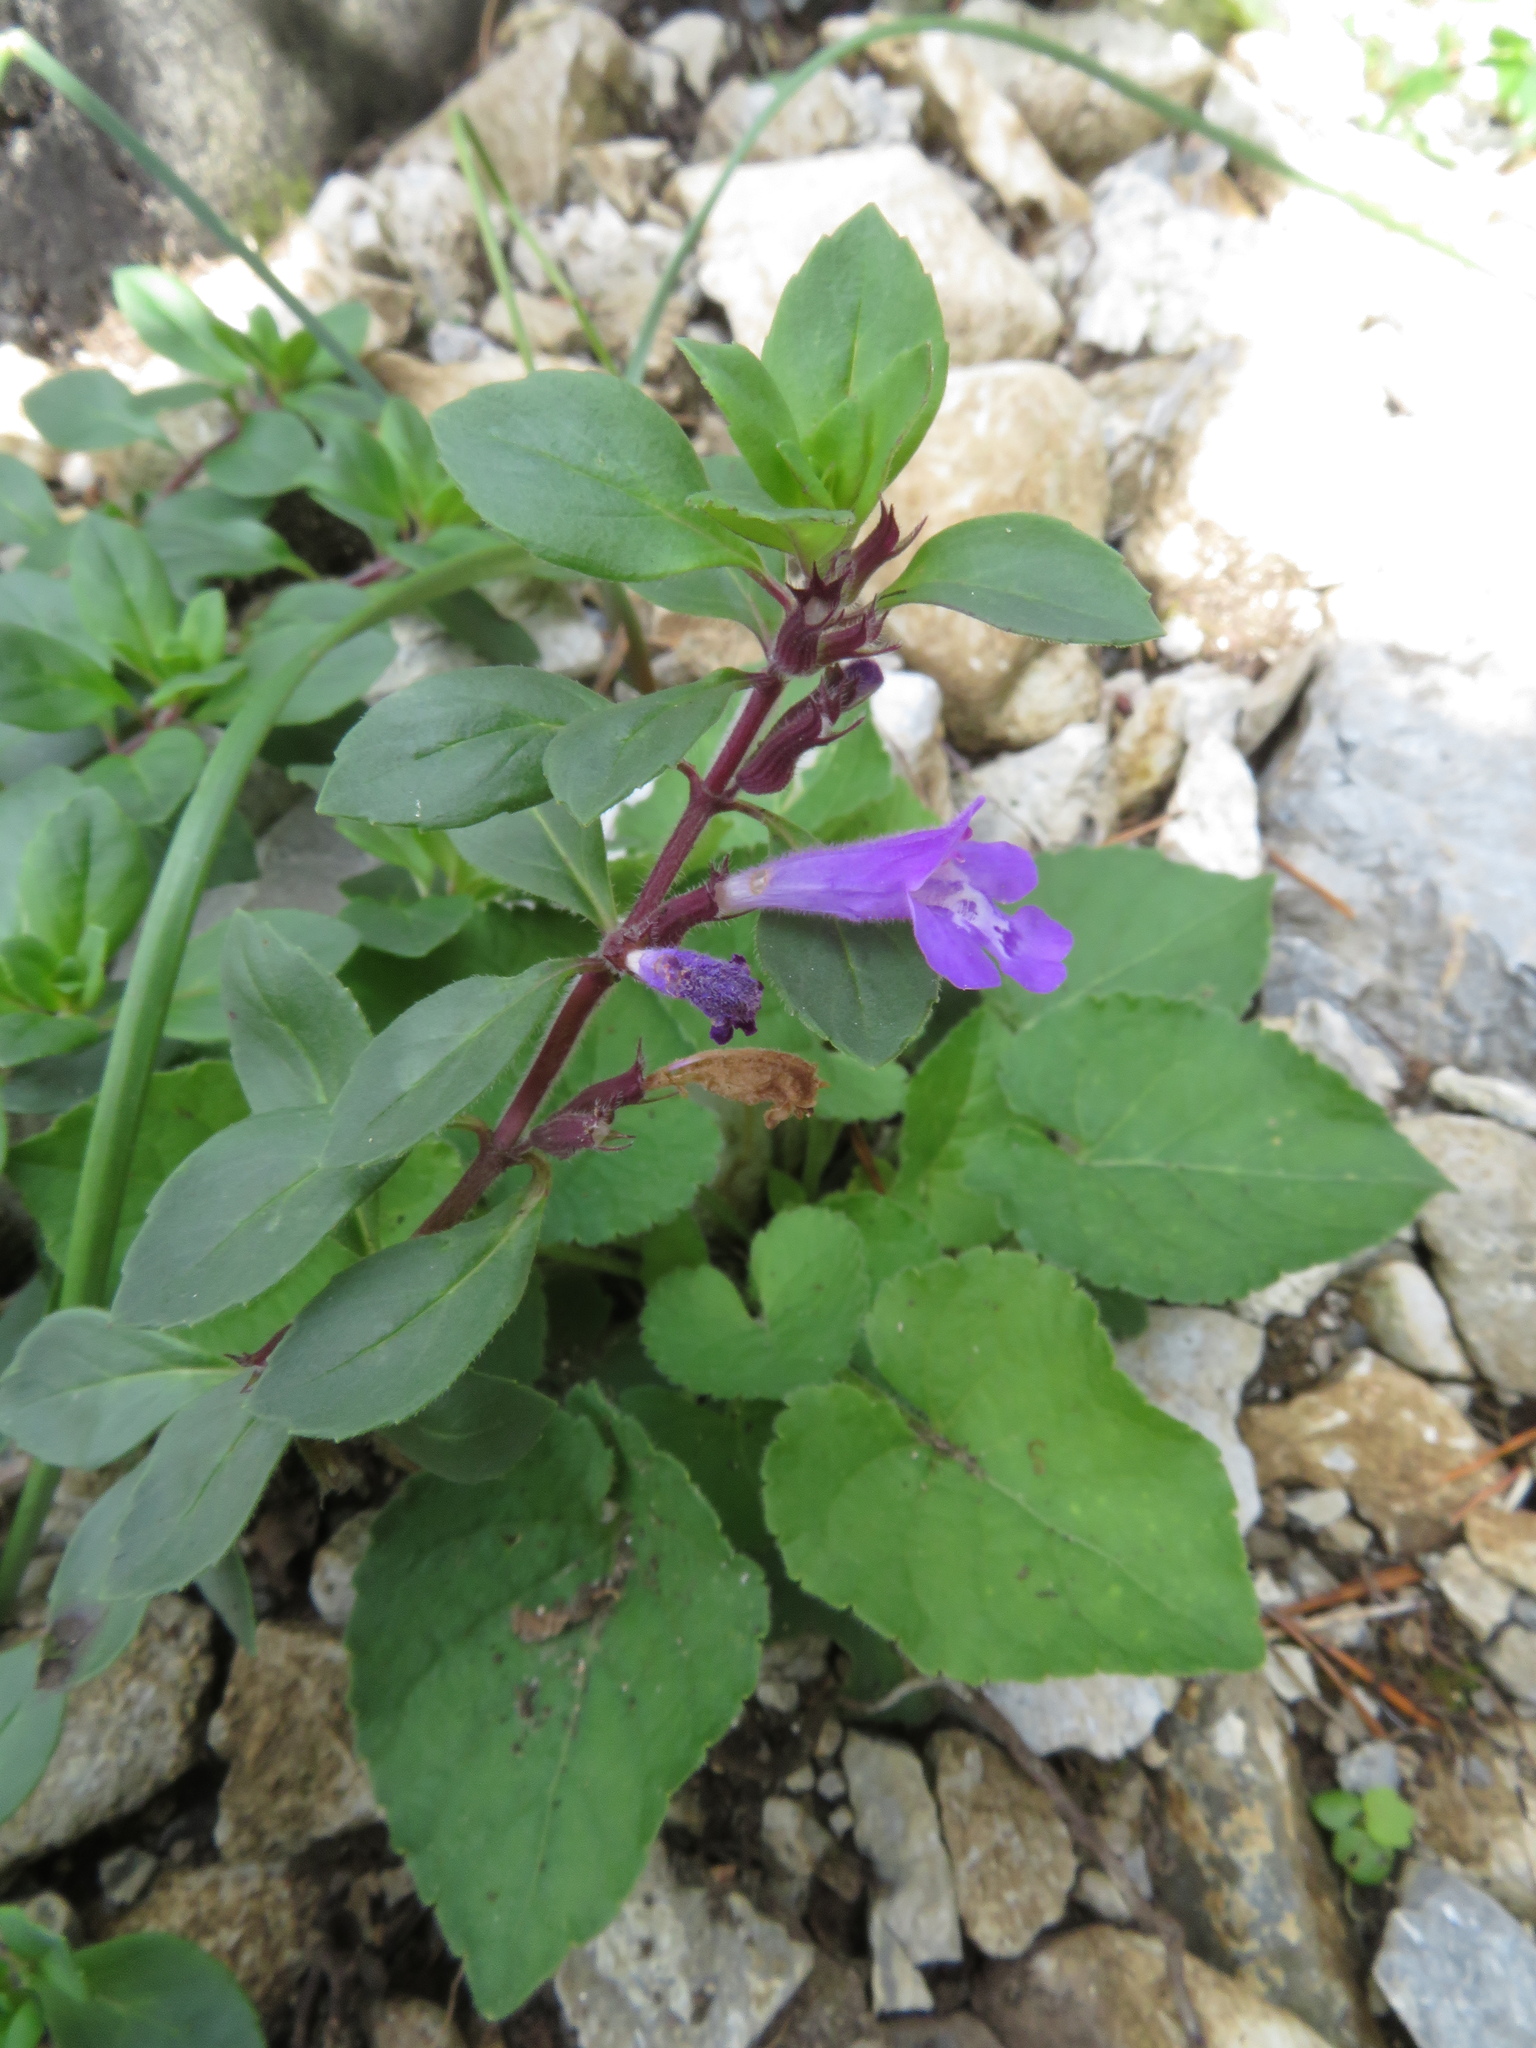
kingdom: Plantae
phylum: Tracheophyta
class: Magnoliopsida
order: Lamiales
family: Lamiaceae
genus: Clinopodium
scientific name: Clinopodium alpinum
